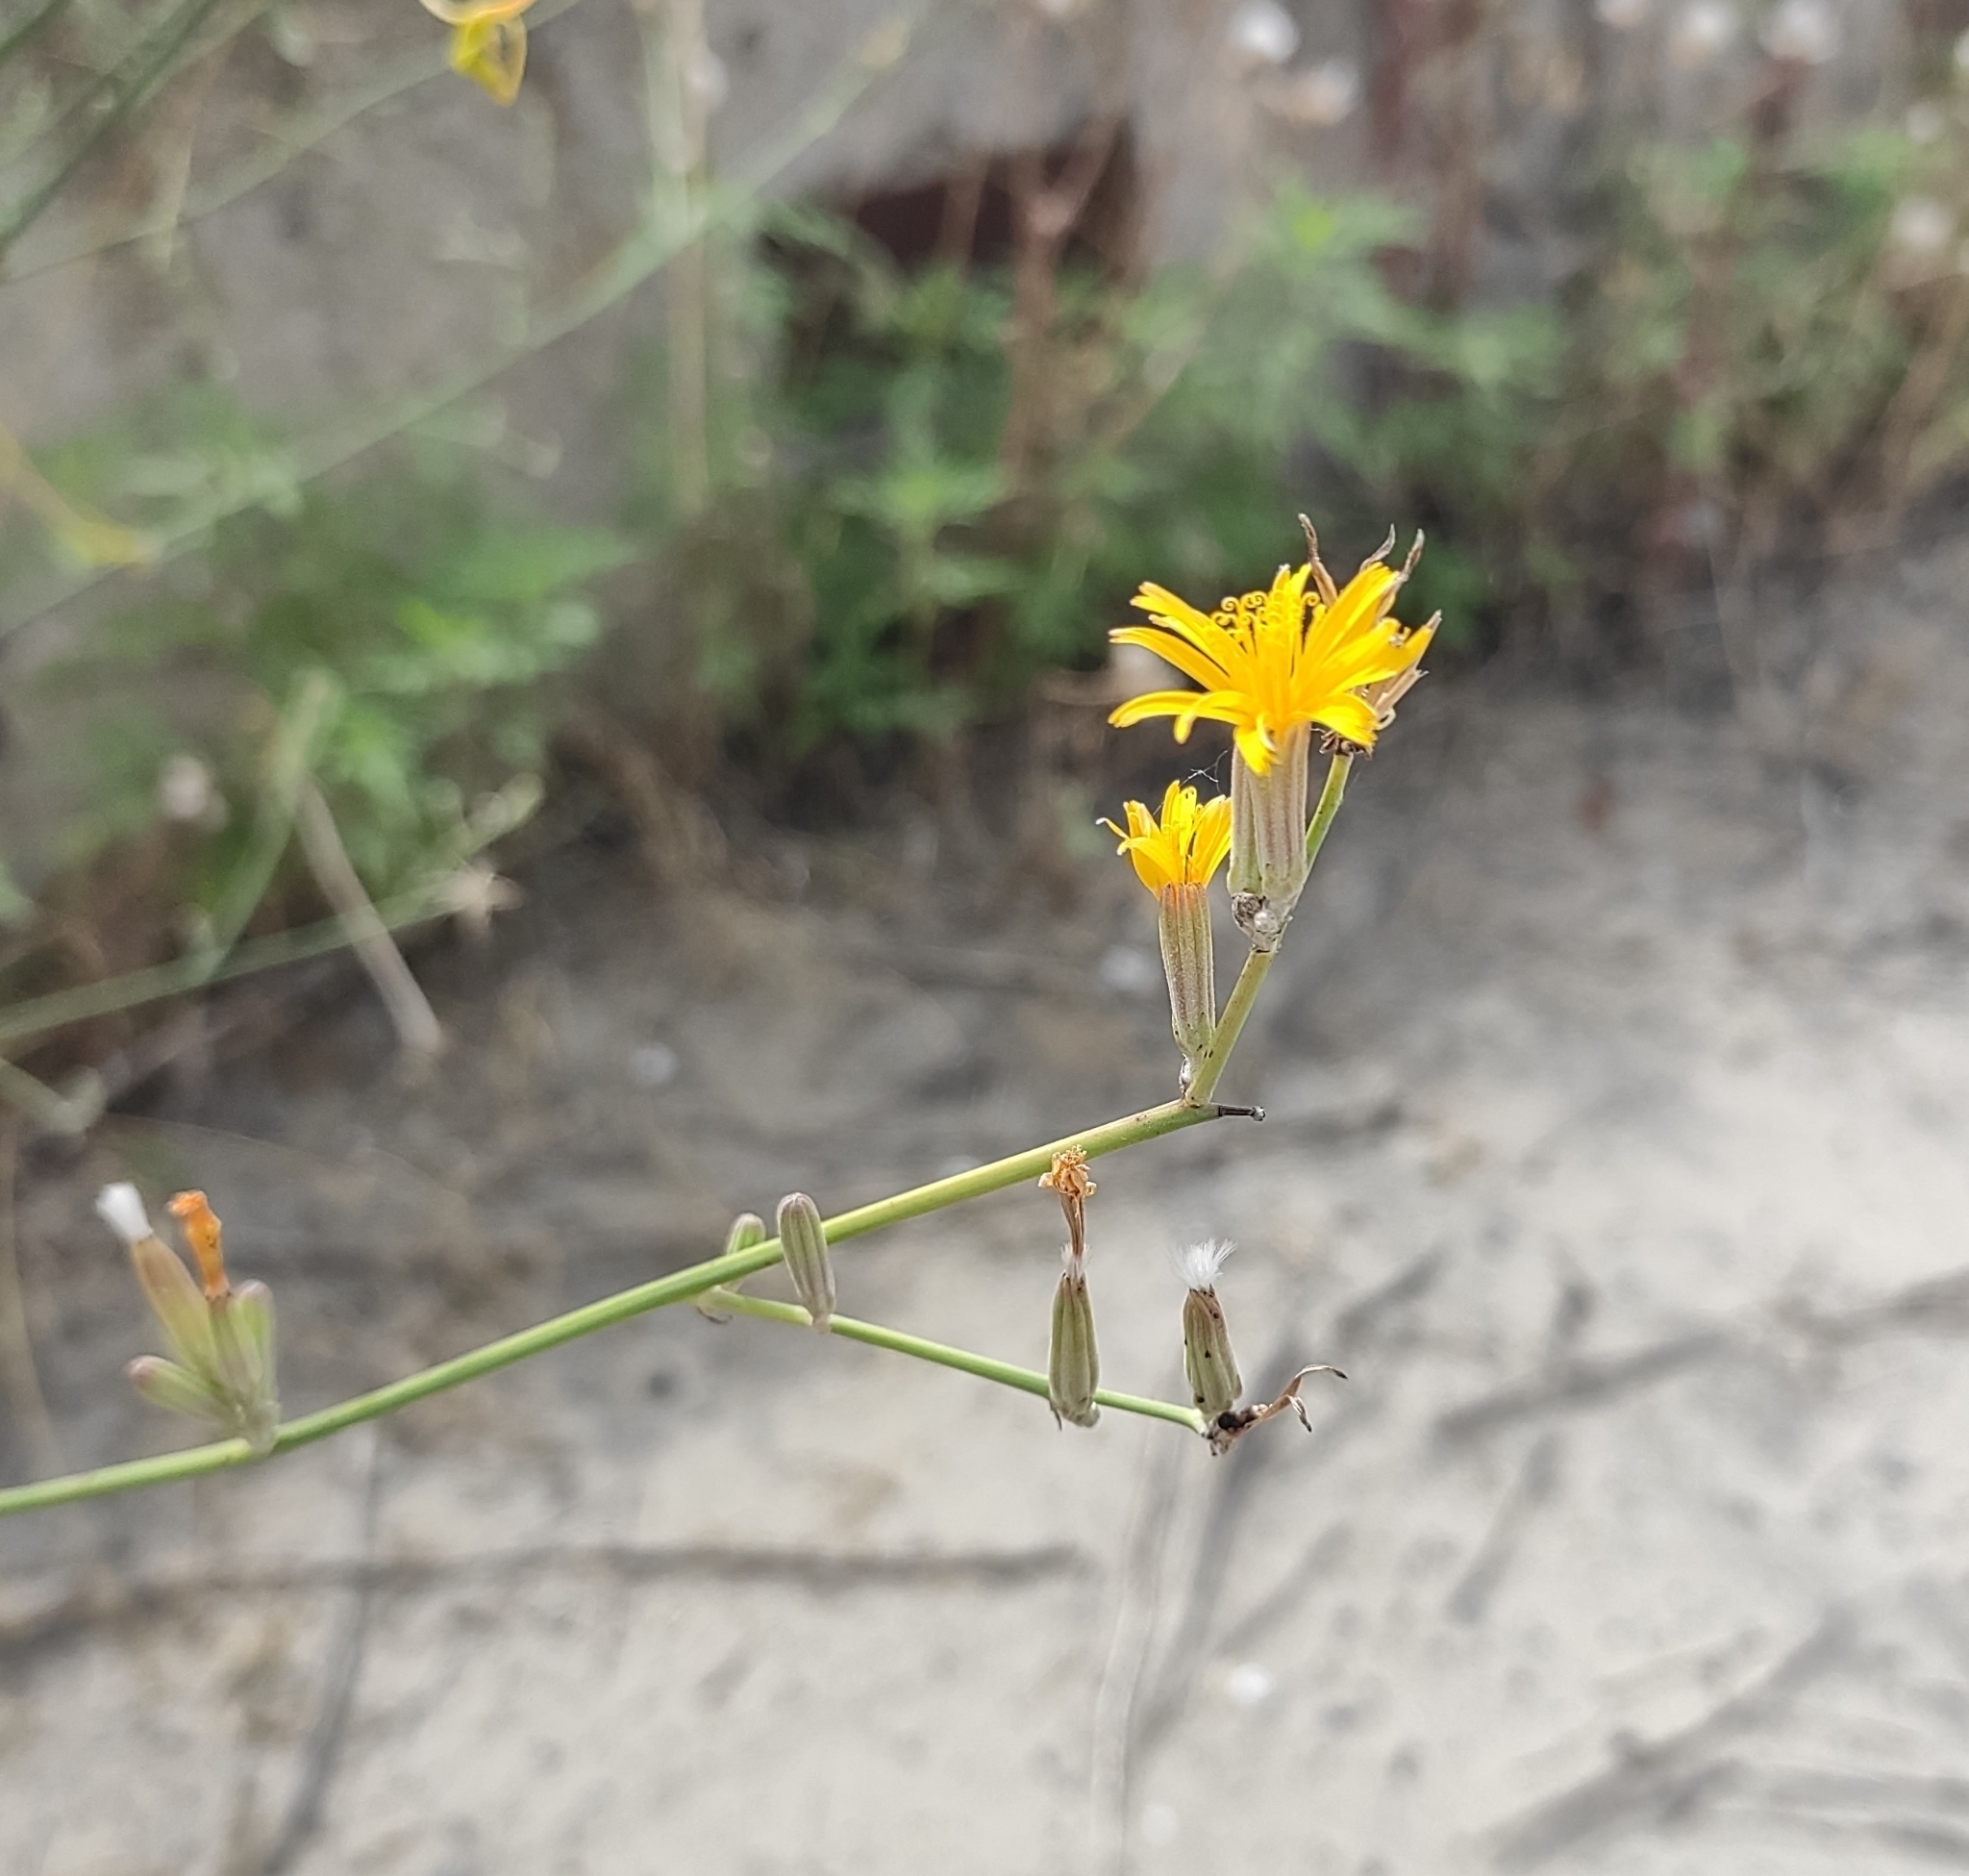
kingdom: Plantae
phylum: Tracheophyta
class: Magnoliopsida
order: Asterales
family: Asteraceae
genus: Chondrilla
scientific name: Chondrilla juncea
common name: Skeleton weed
